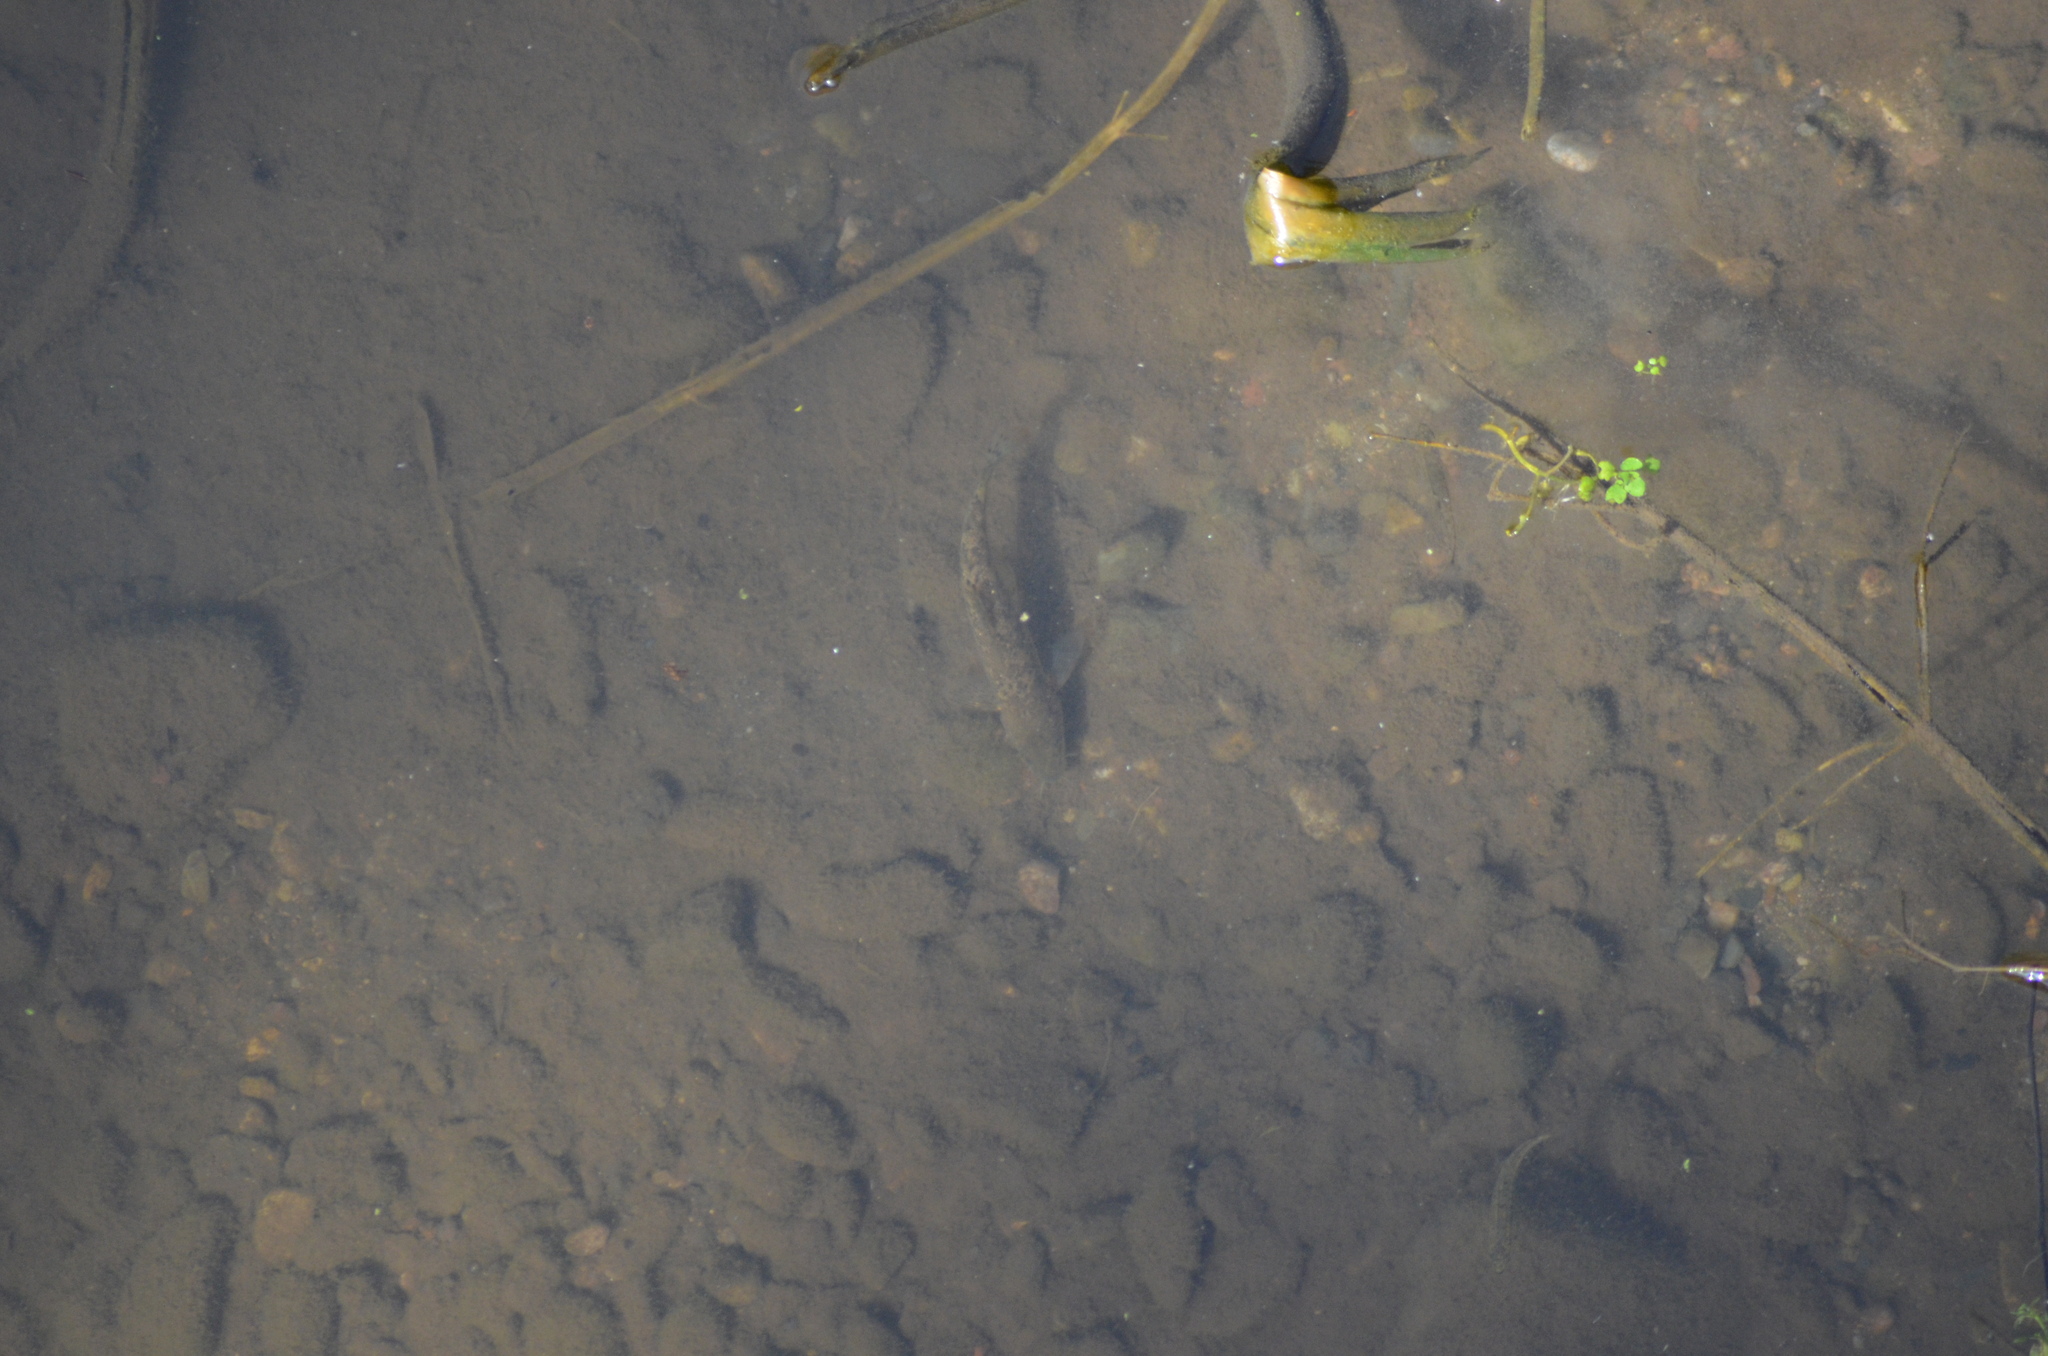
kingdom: Animalia
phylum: Chordata
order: Cypriniformes
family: Cyprinidae
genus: Barbus
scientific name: Barbus meridionalis
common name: Mediterranean barbel
